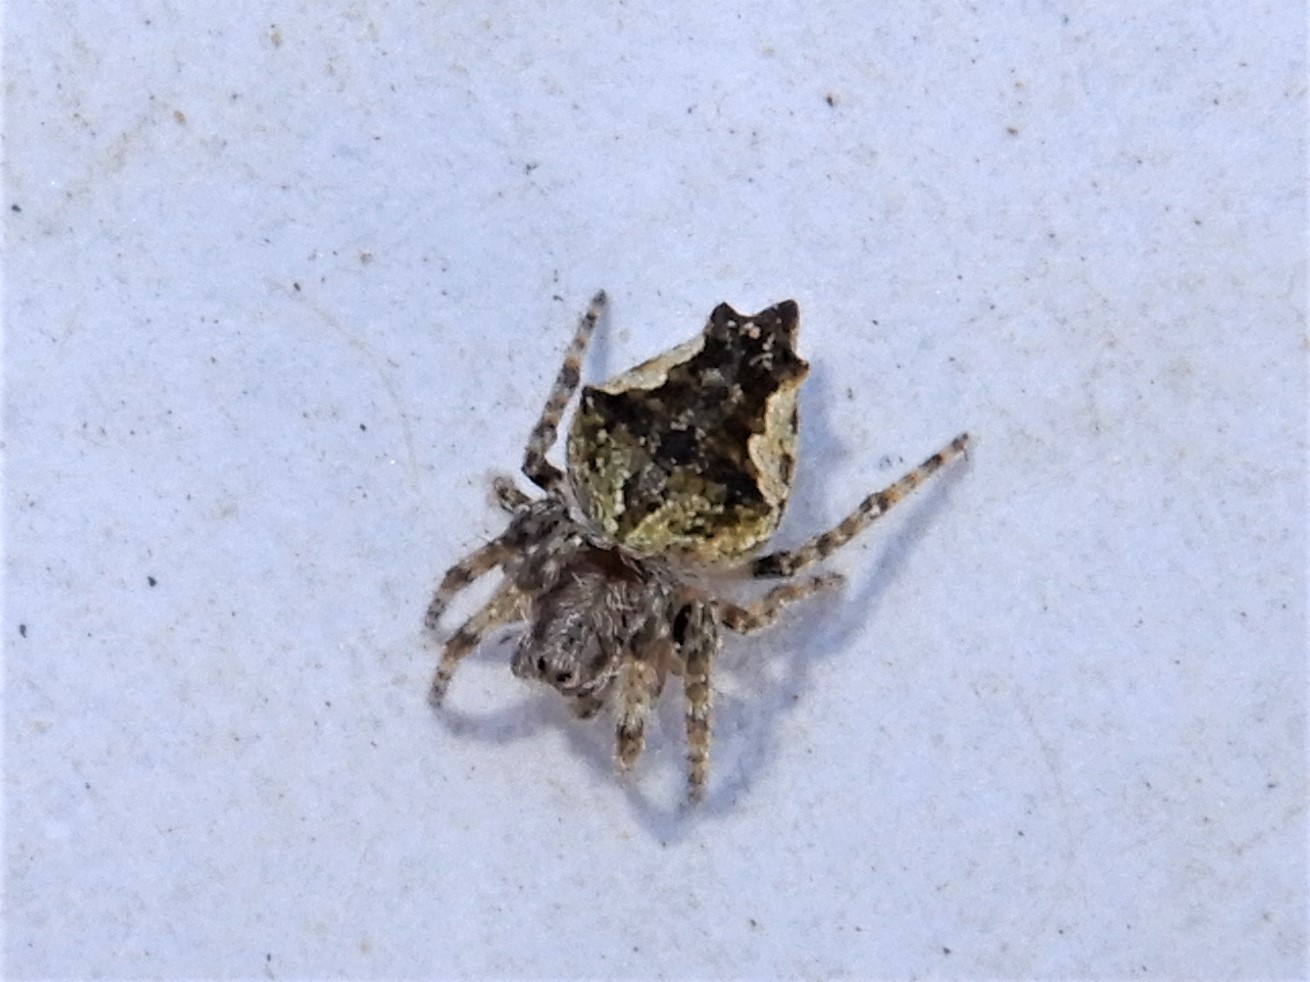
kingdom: Animalia
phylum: Arthropoda
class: Arachnida
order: Araneae
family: Araneidae
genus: Eriophora
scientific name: Eriophora pustulosa
